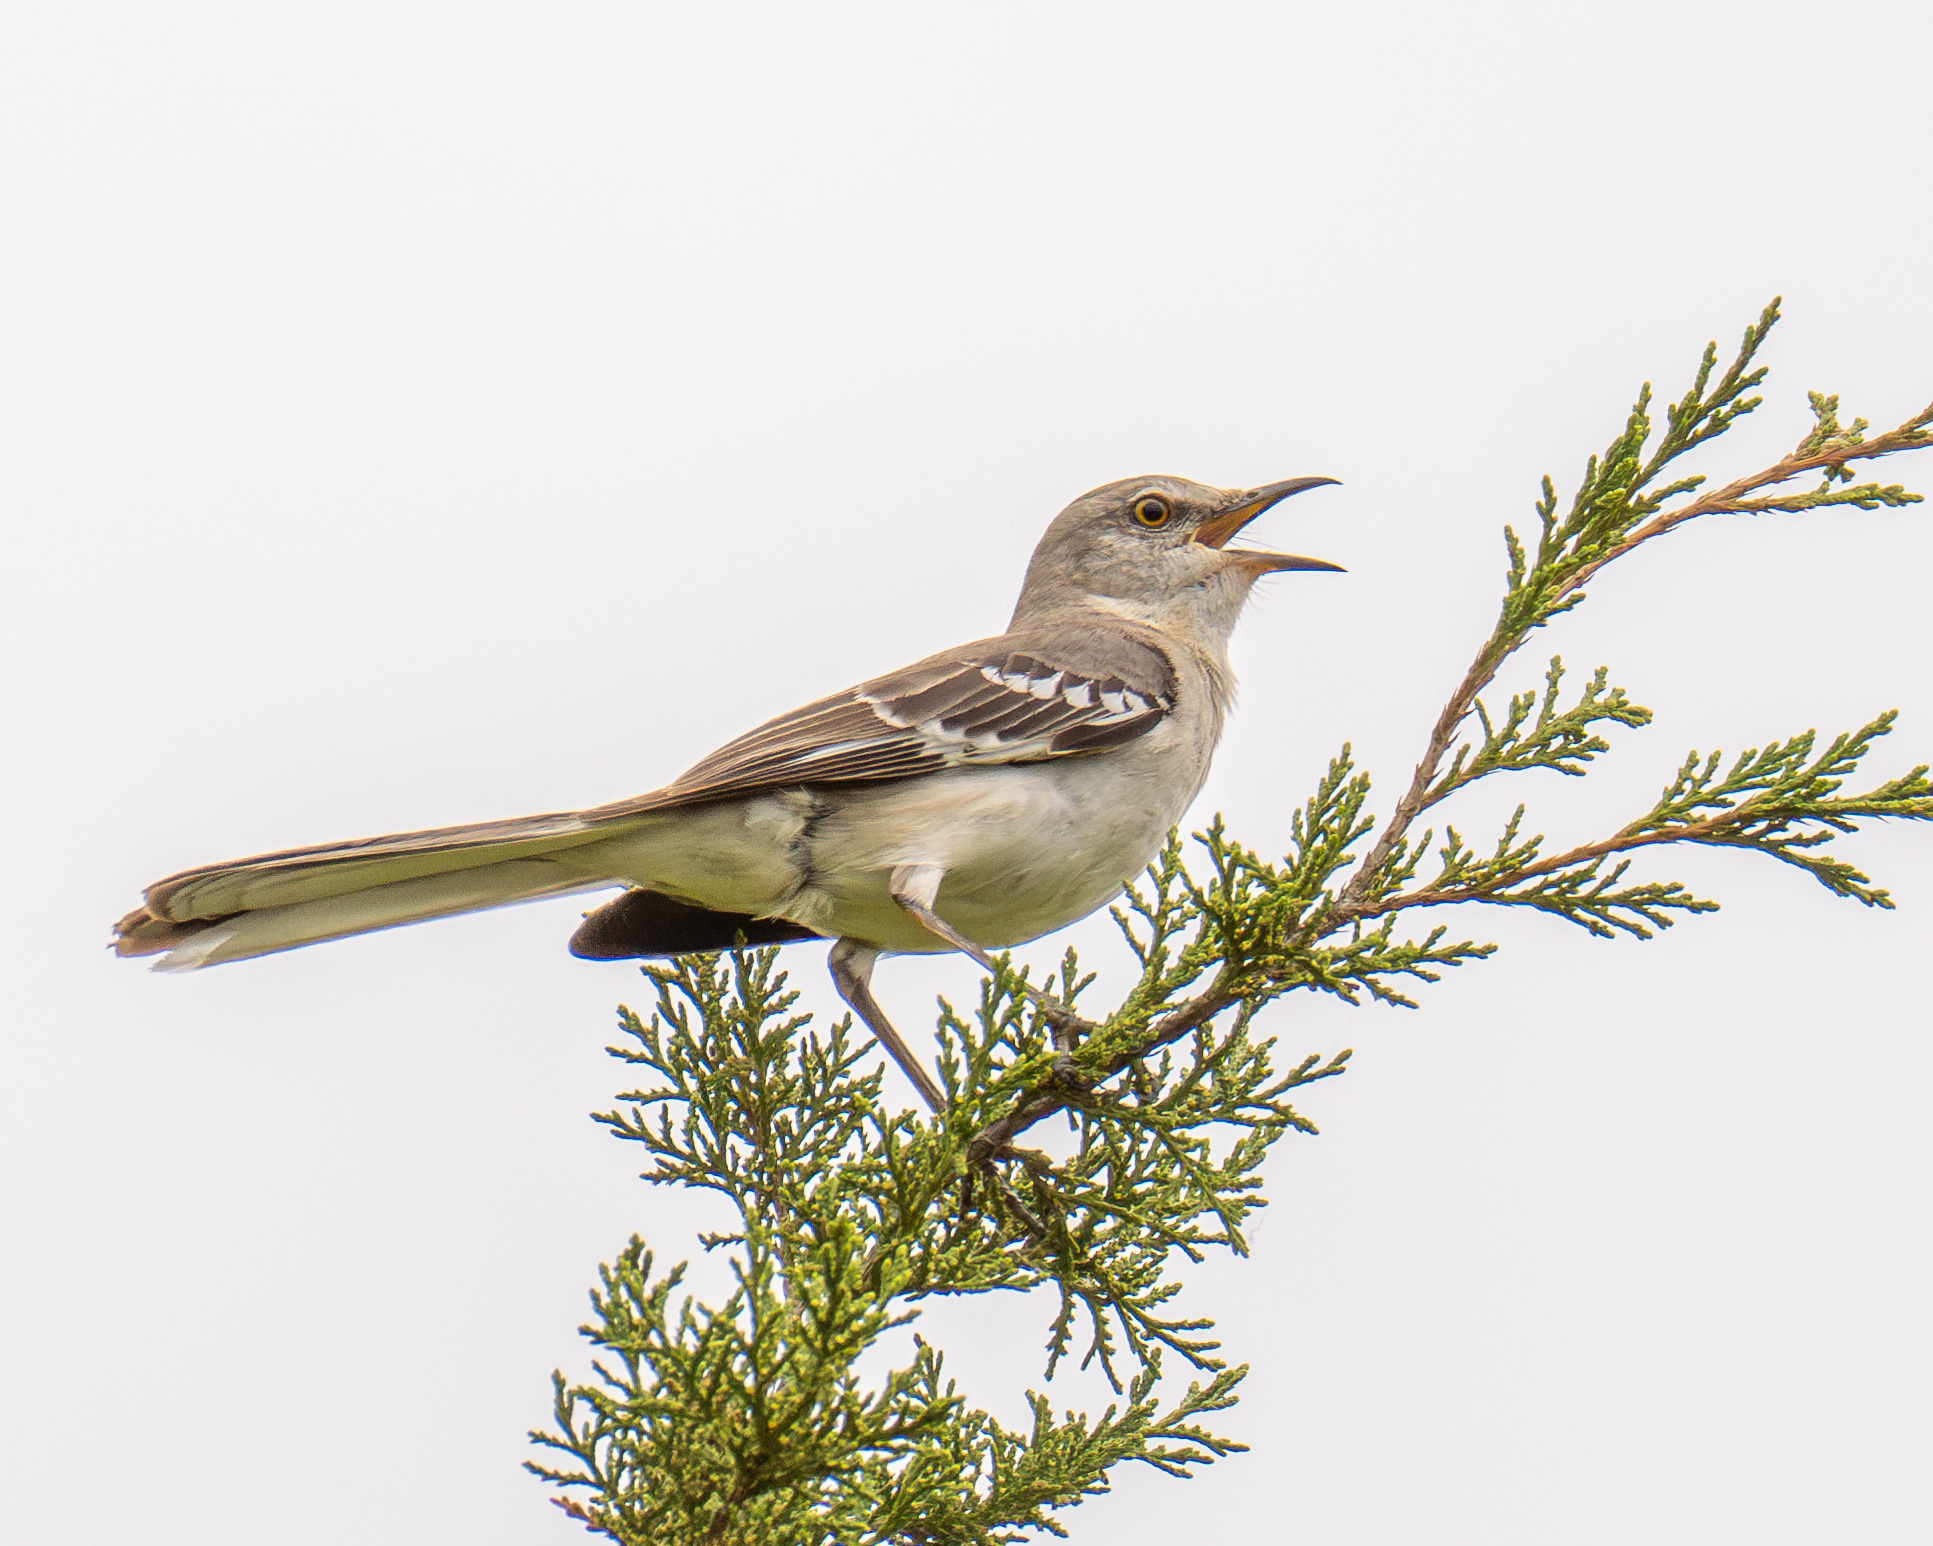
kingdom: Animalia
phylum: Chordata
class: Aves
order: Passeriformes
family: Mimidae
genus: Mimus
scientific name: Mimus polyglottos
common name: Northern mockingbird
